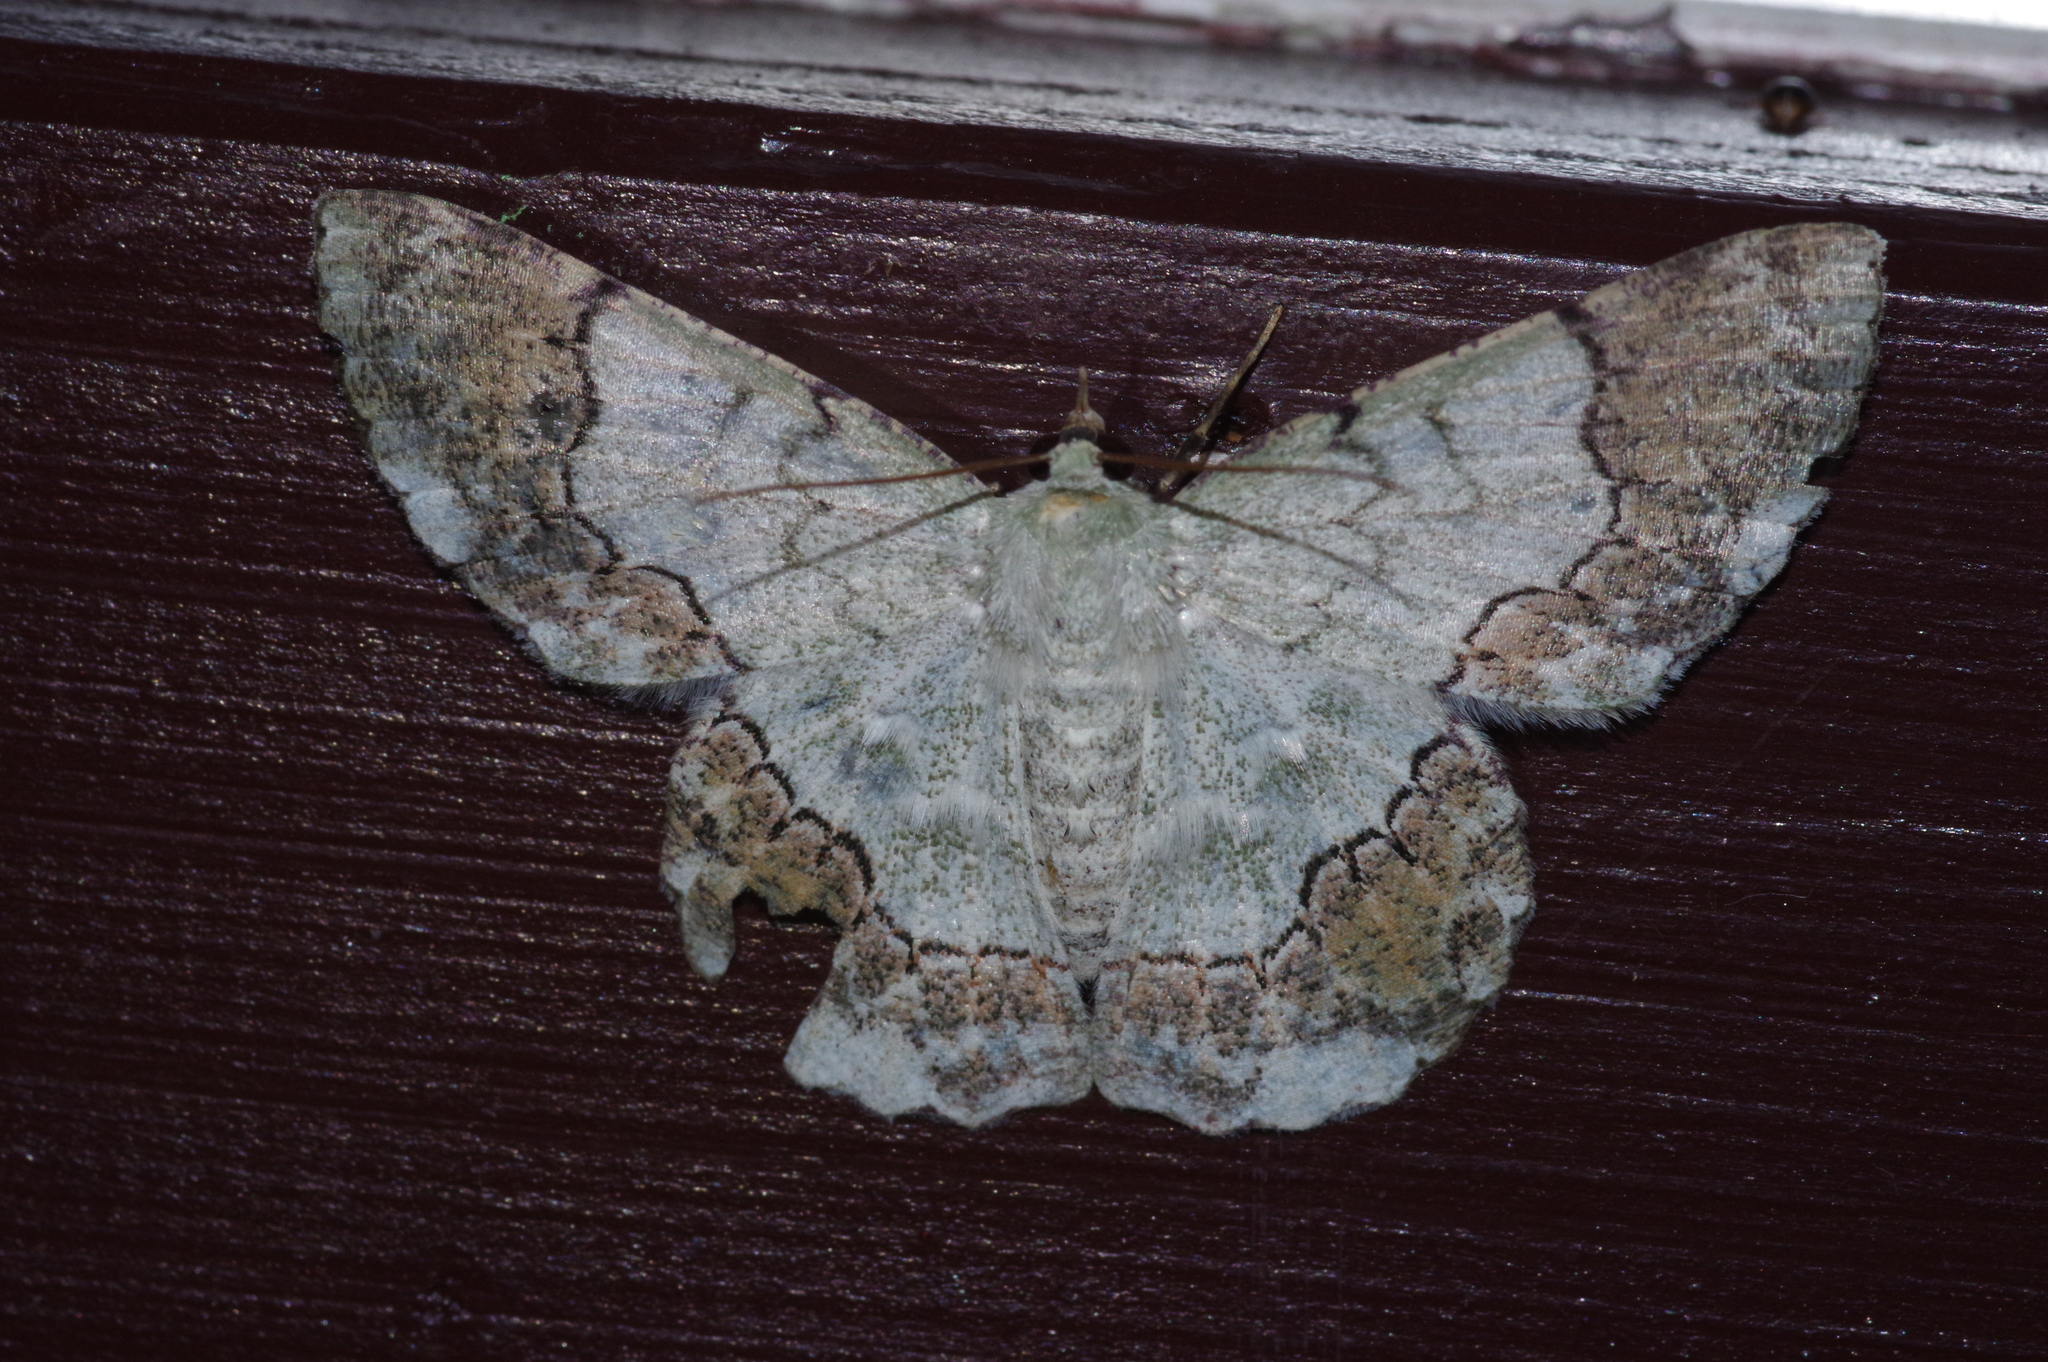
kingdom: Animalia
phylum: Arthropoda
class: Insecta
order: Lepidoptera
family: Geometridae
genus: Pingasa
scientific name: Pingasa ruginaria
